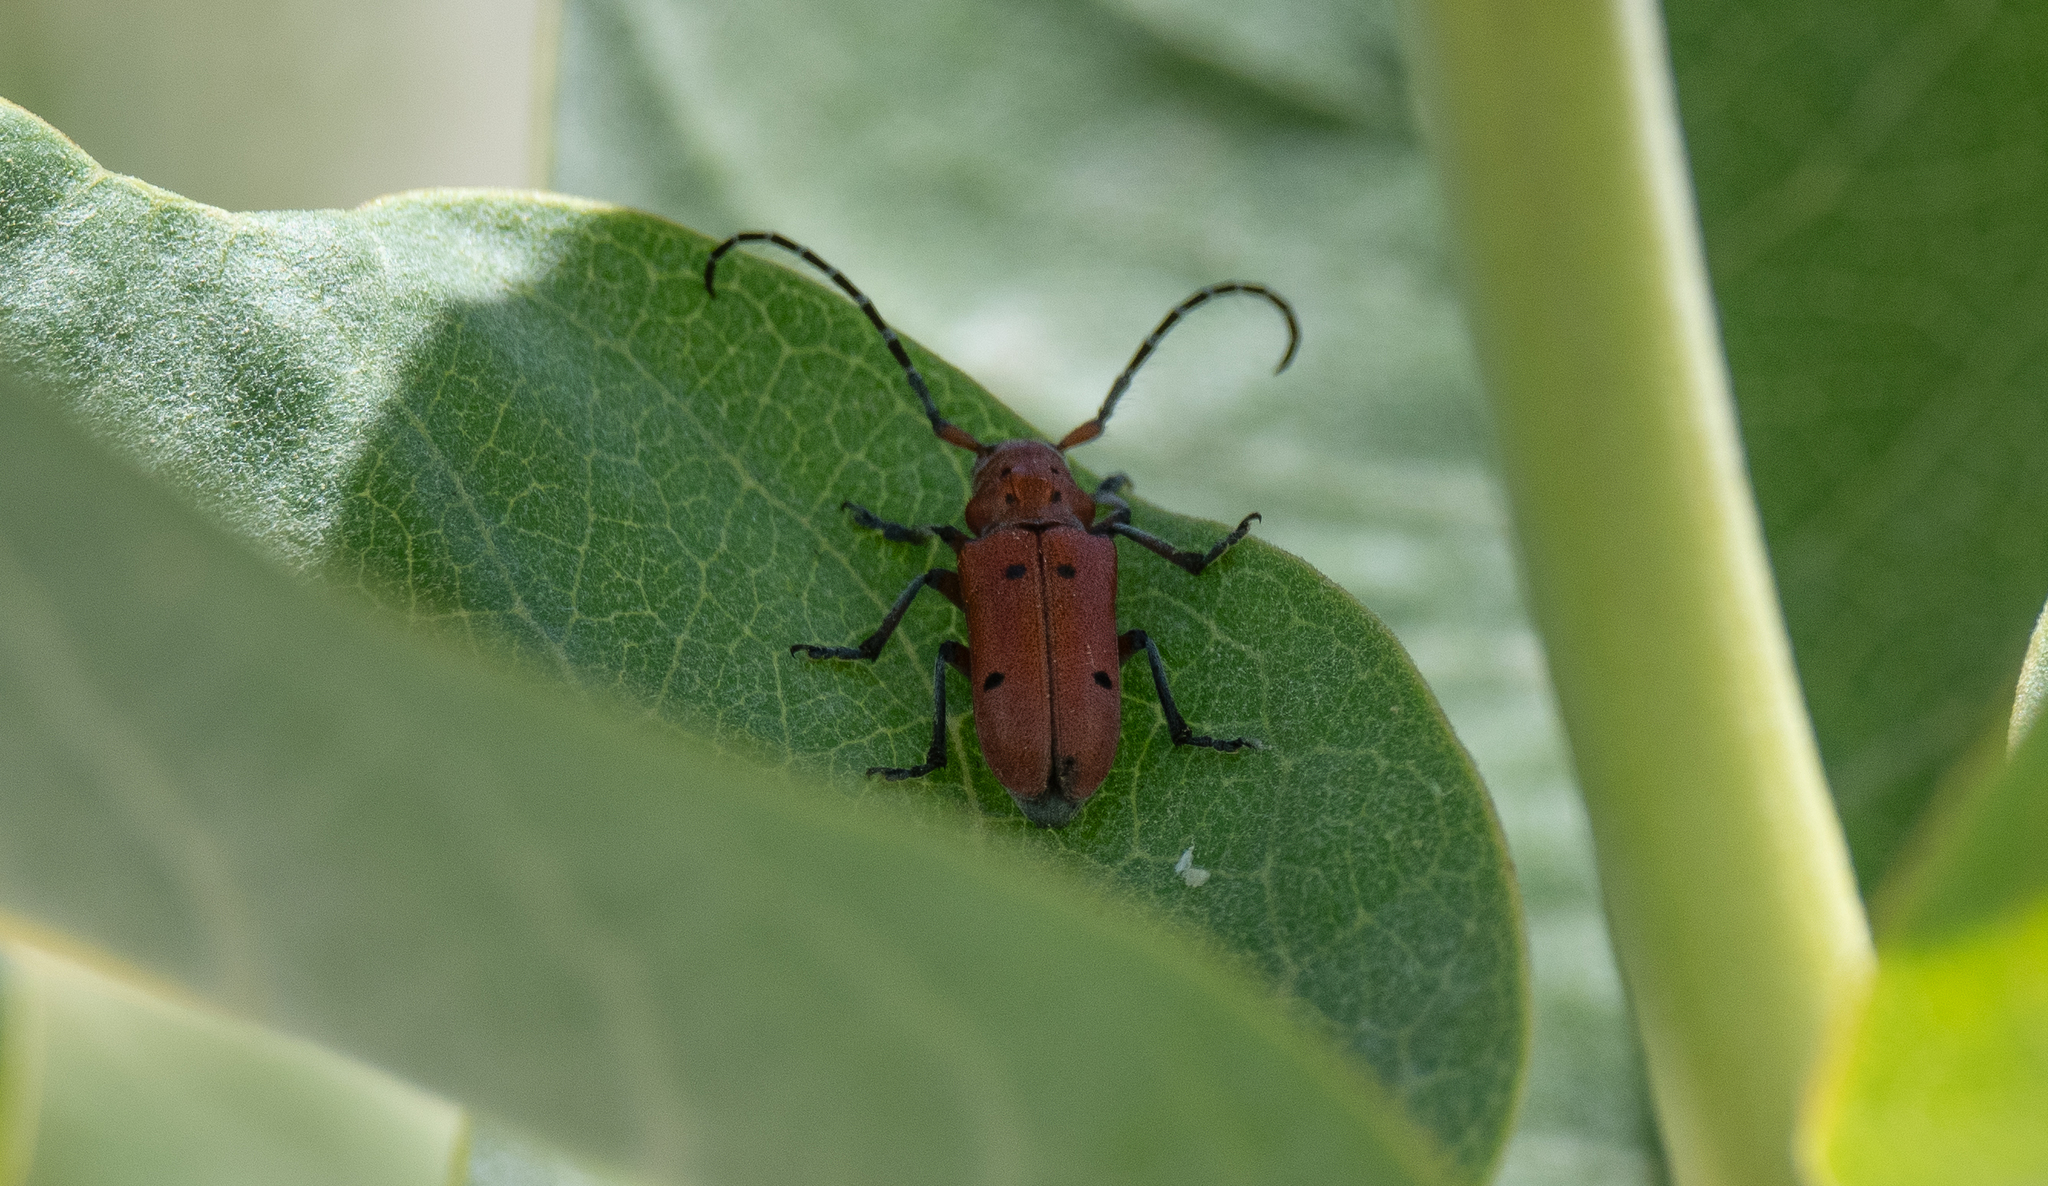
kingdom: Animalia
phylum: Arthropoda
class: Insecta
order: Coleoptera
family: Cerambycidae
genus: Tetraopes
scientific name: Tetraopes femoratus
